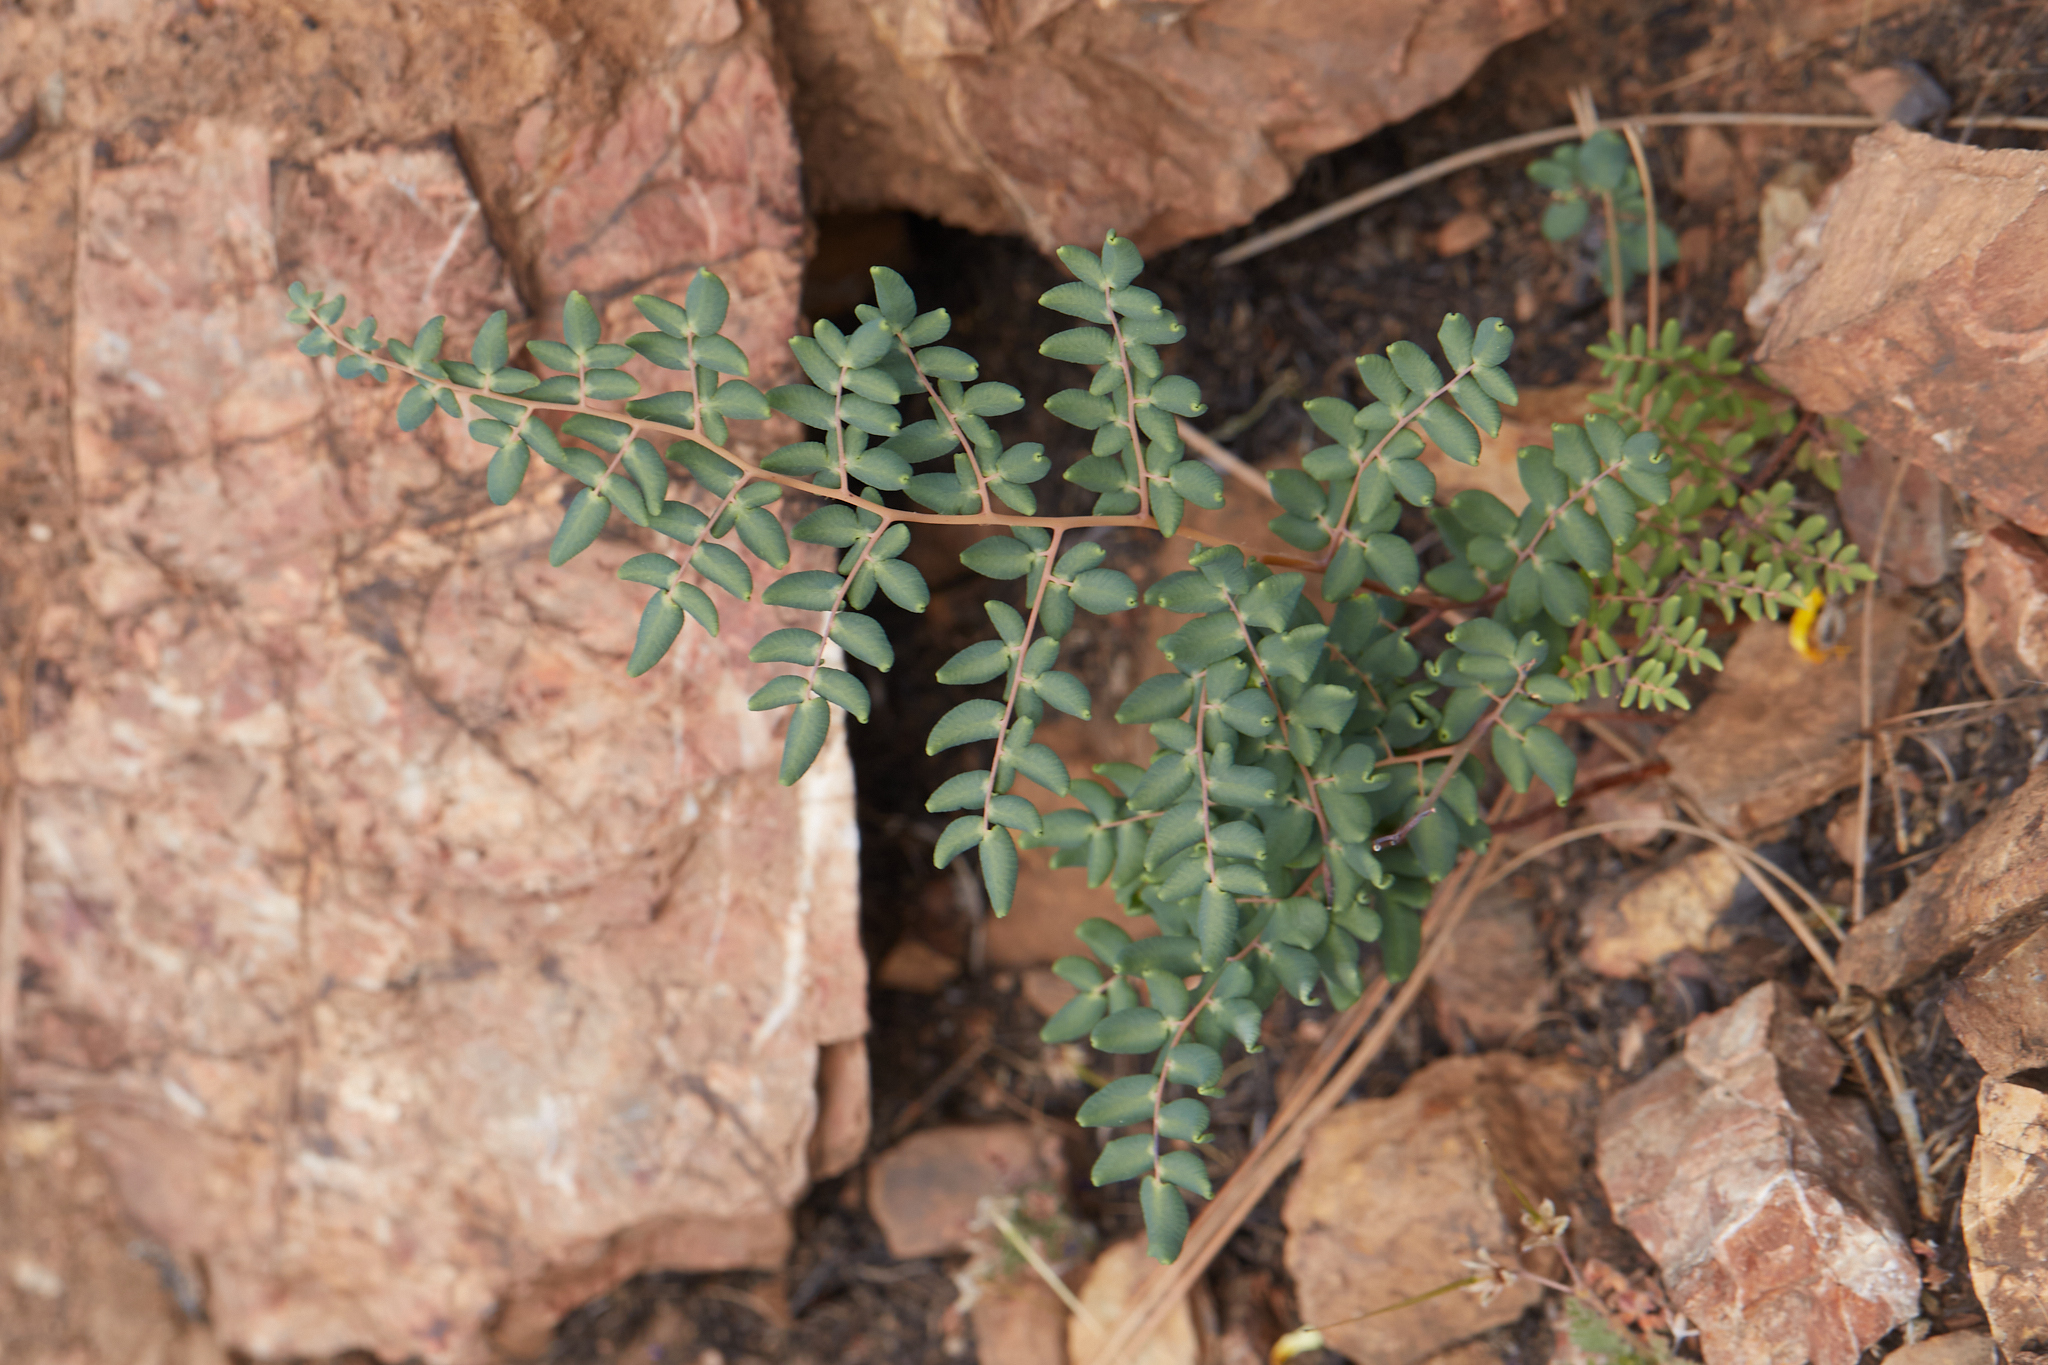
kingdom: Plantae
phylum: Tracheophyta
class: Polypodiopsida
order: Polypodiales
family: Pteridaceae
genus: Pellaea
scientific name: Pellaea andromedifolia
